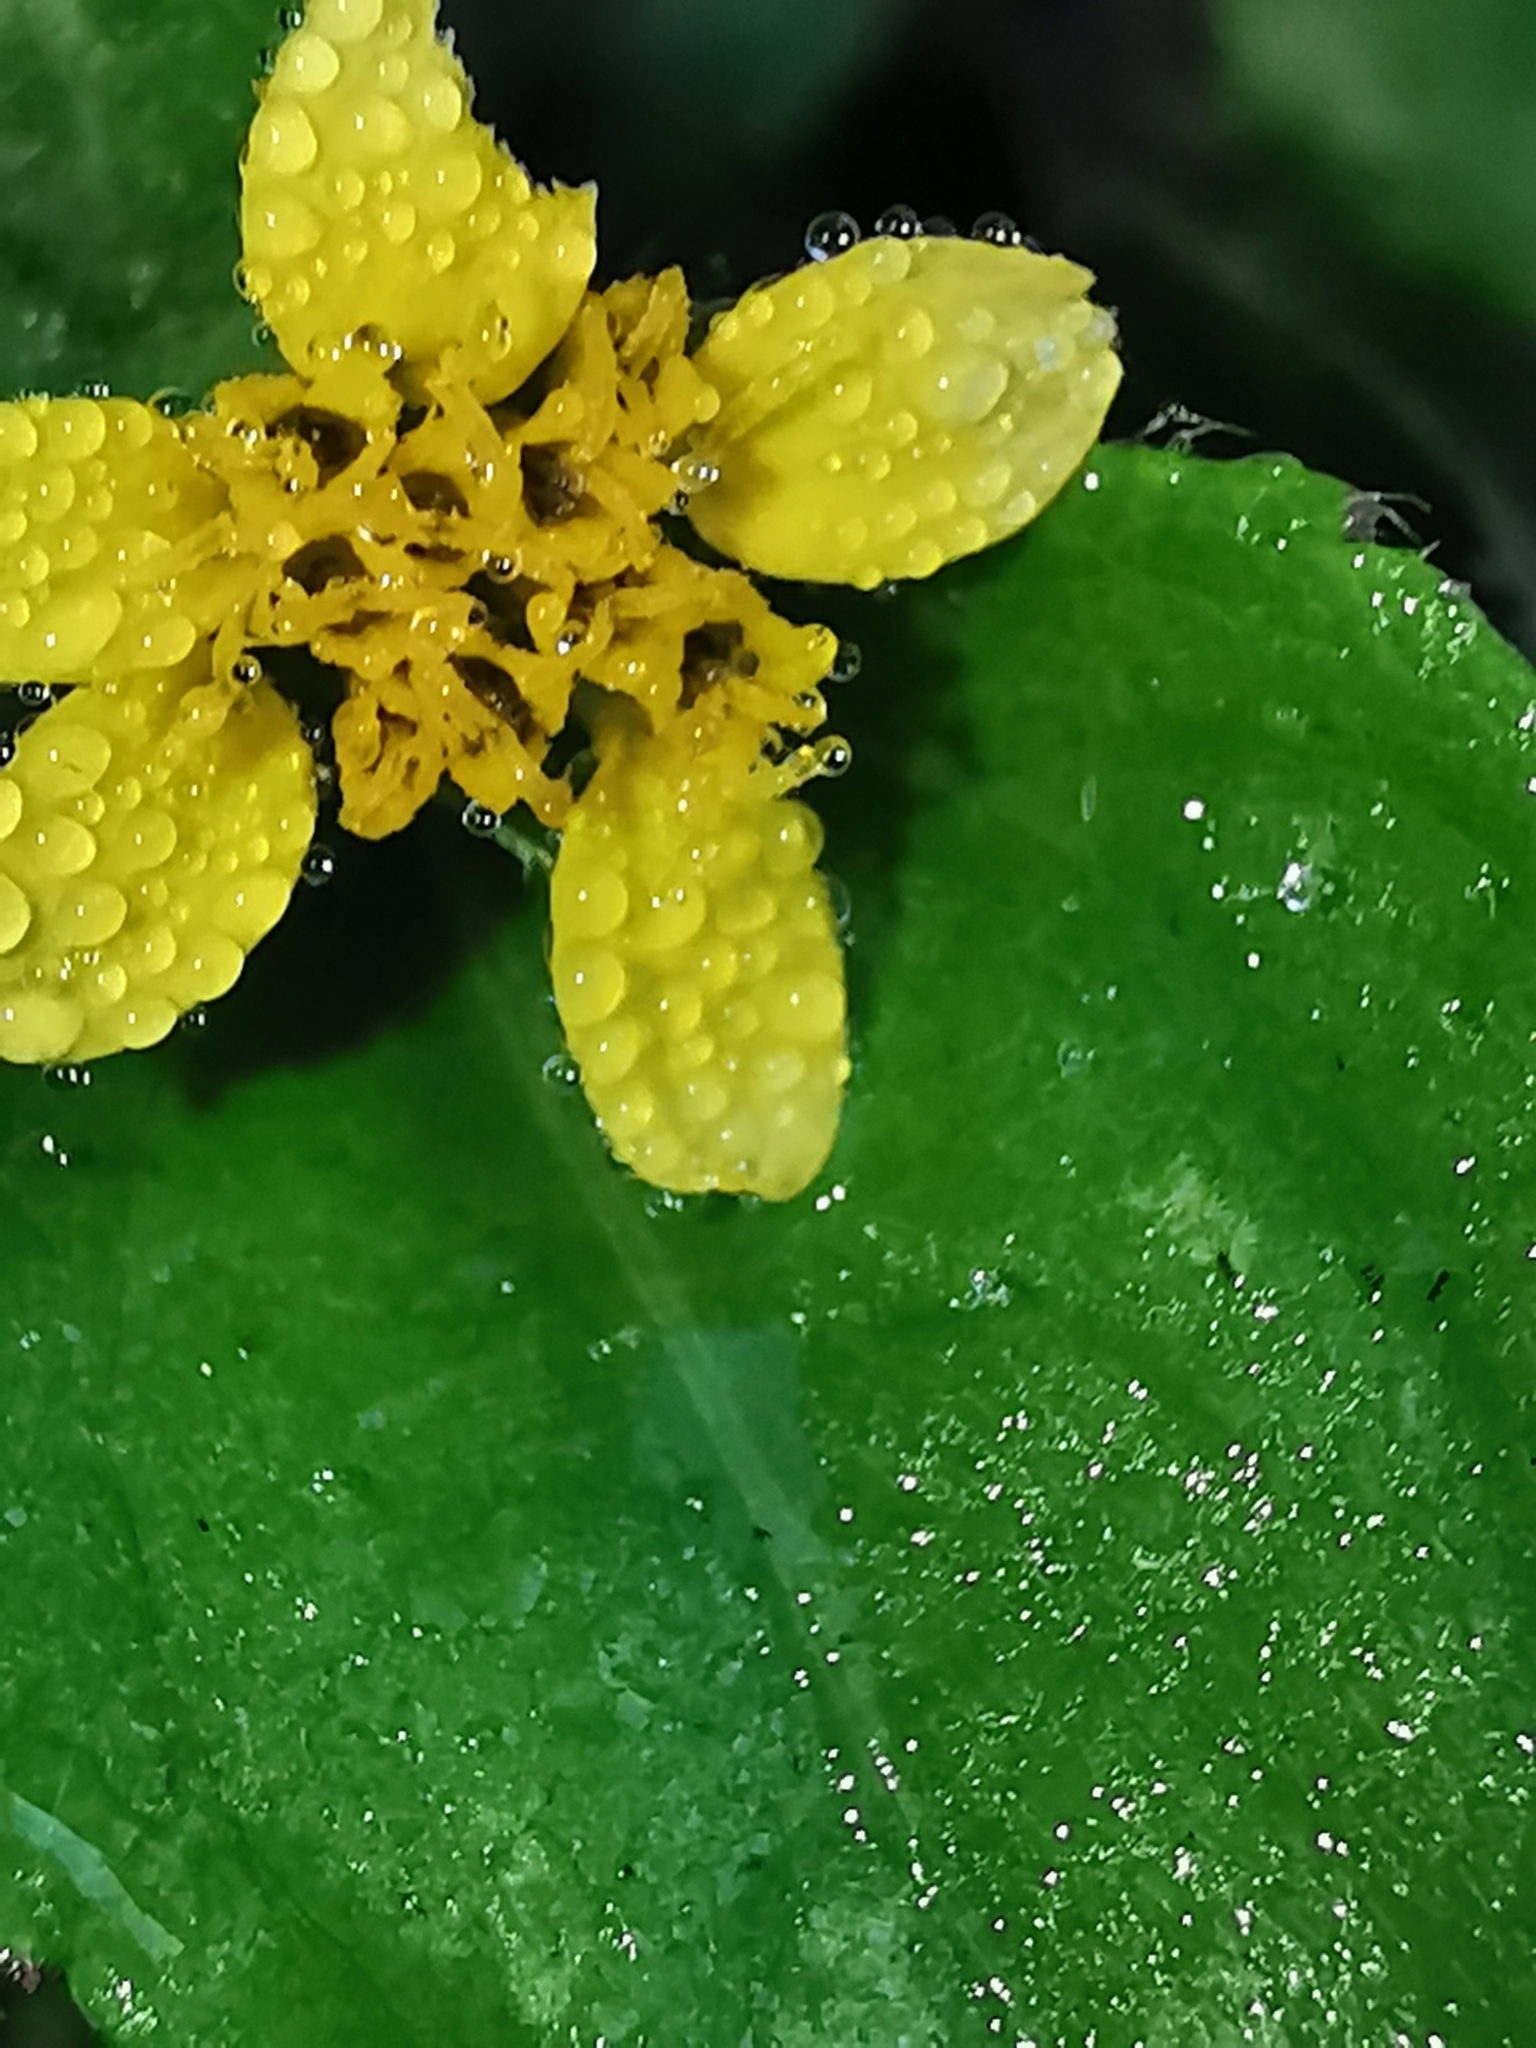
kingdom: Plantae
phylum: Tracheophyta
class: Magnoliopsida
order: Asterales
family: Asteraceae
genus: Calyptocarpus
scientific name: Calyptocarpus vialis
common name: Straggler daisy
